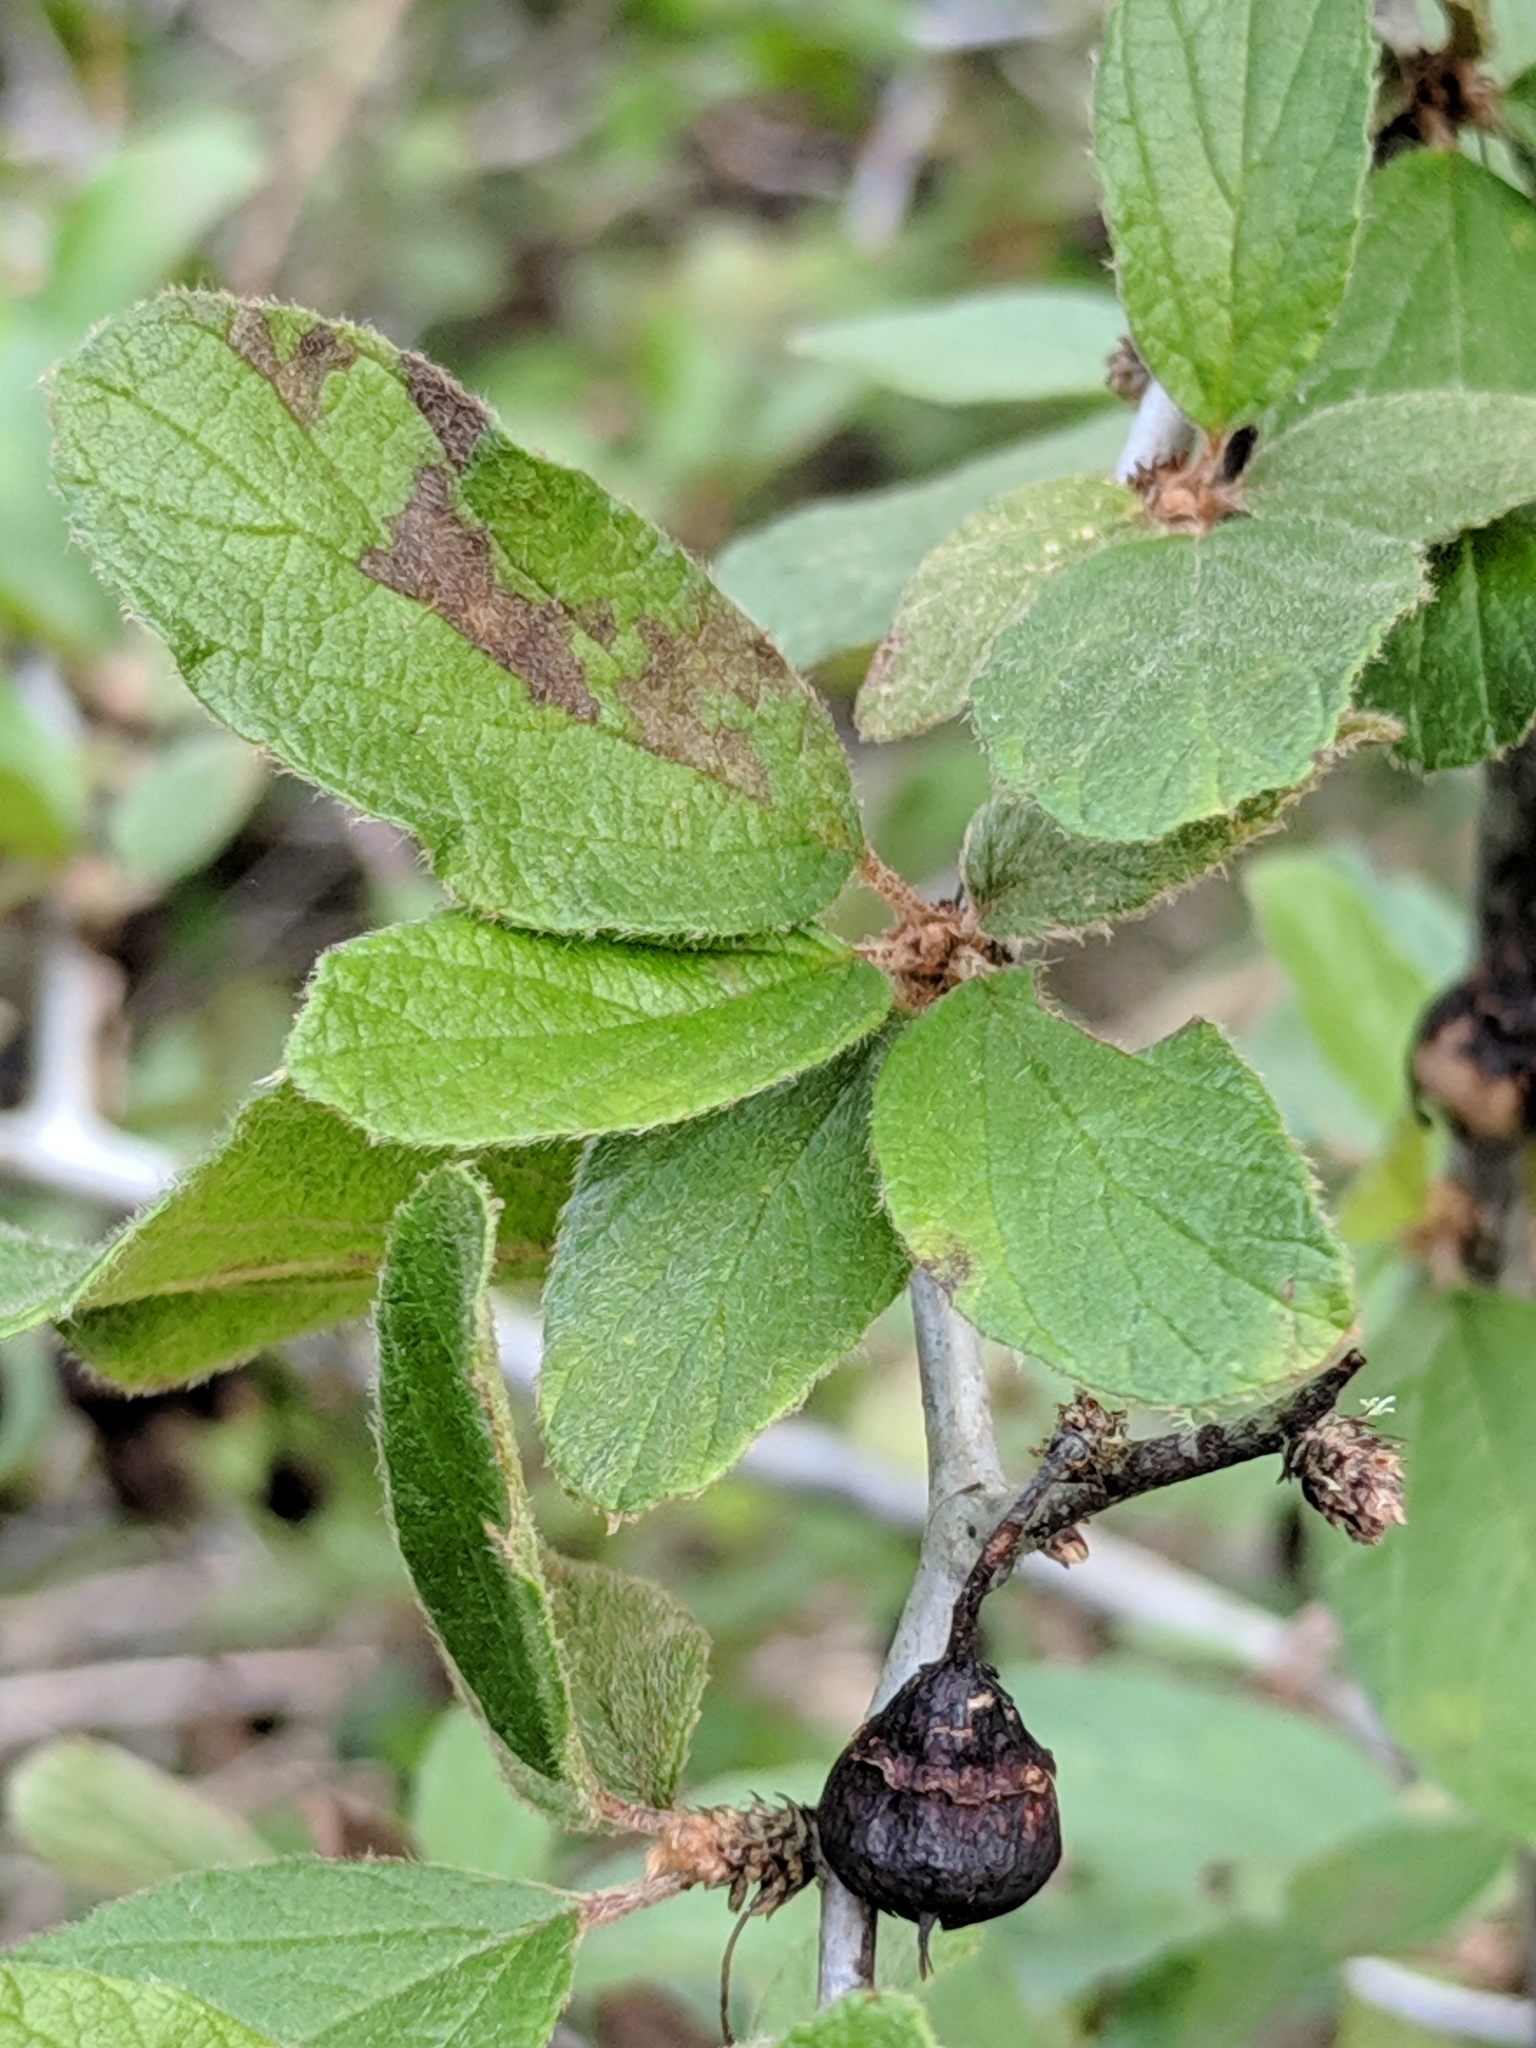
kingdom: Plantae
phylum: Tracheophyta
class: Magnoliopsida
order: Rosales
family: Rhamnaceae
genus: Colubrina
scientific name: Colubrina texensis
